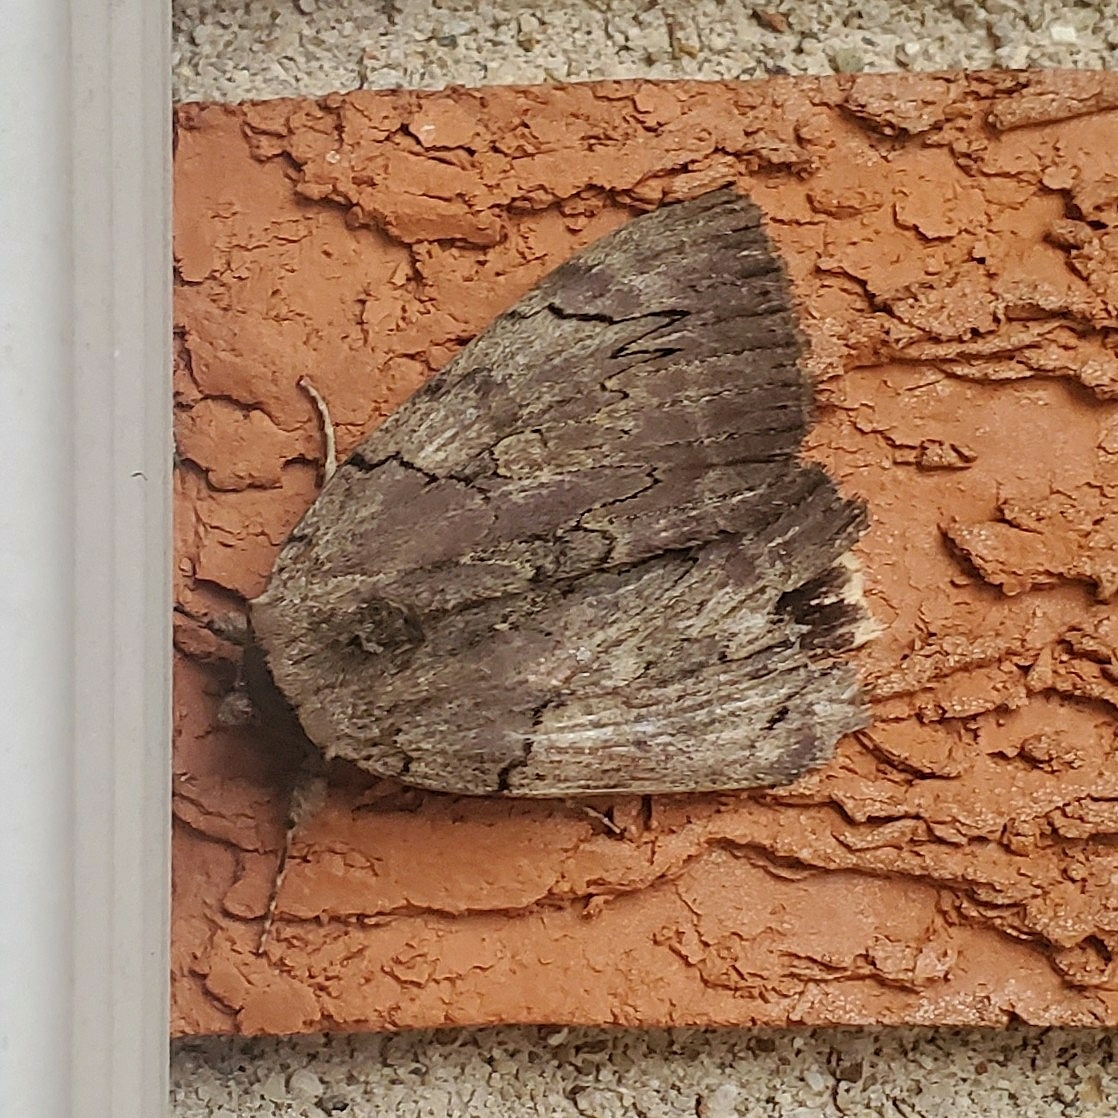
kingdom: Animalia
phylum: Arthropoda
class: Insecta
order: Lepidoptera
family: Erebidae
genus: Catocala
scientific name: Catocala cara
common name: Darling underwing
